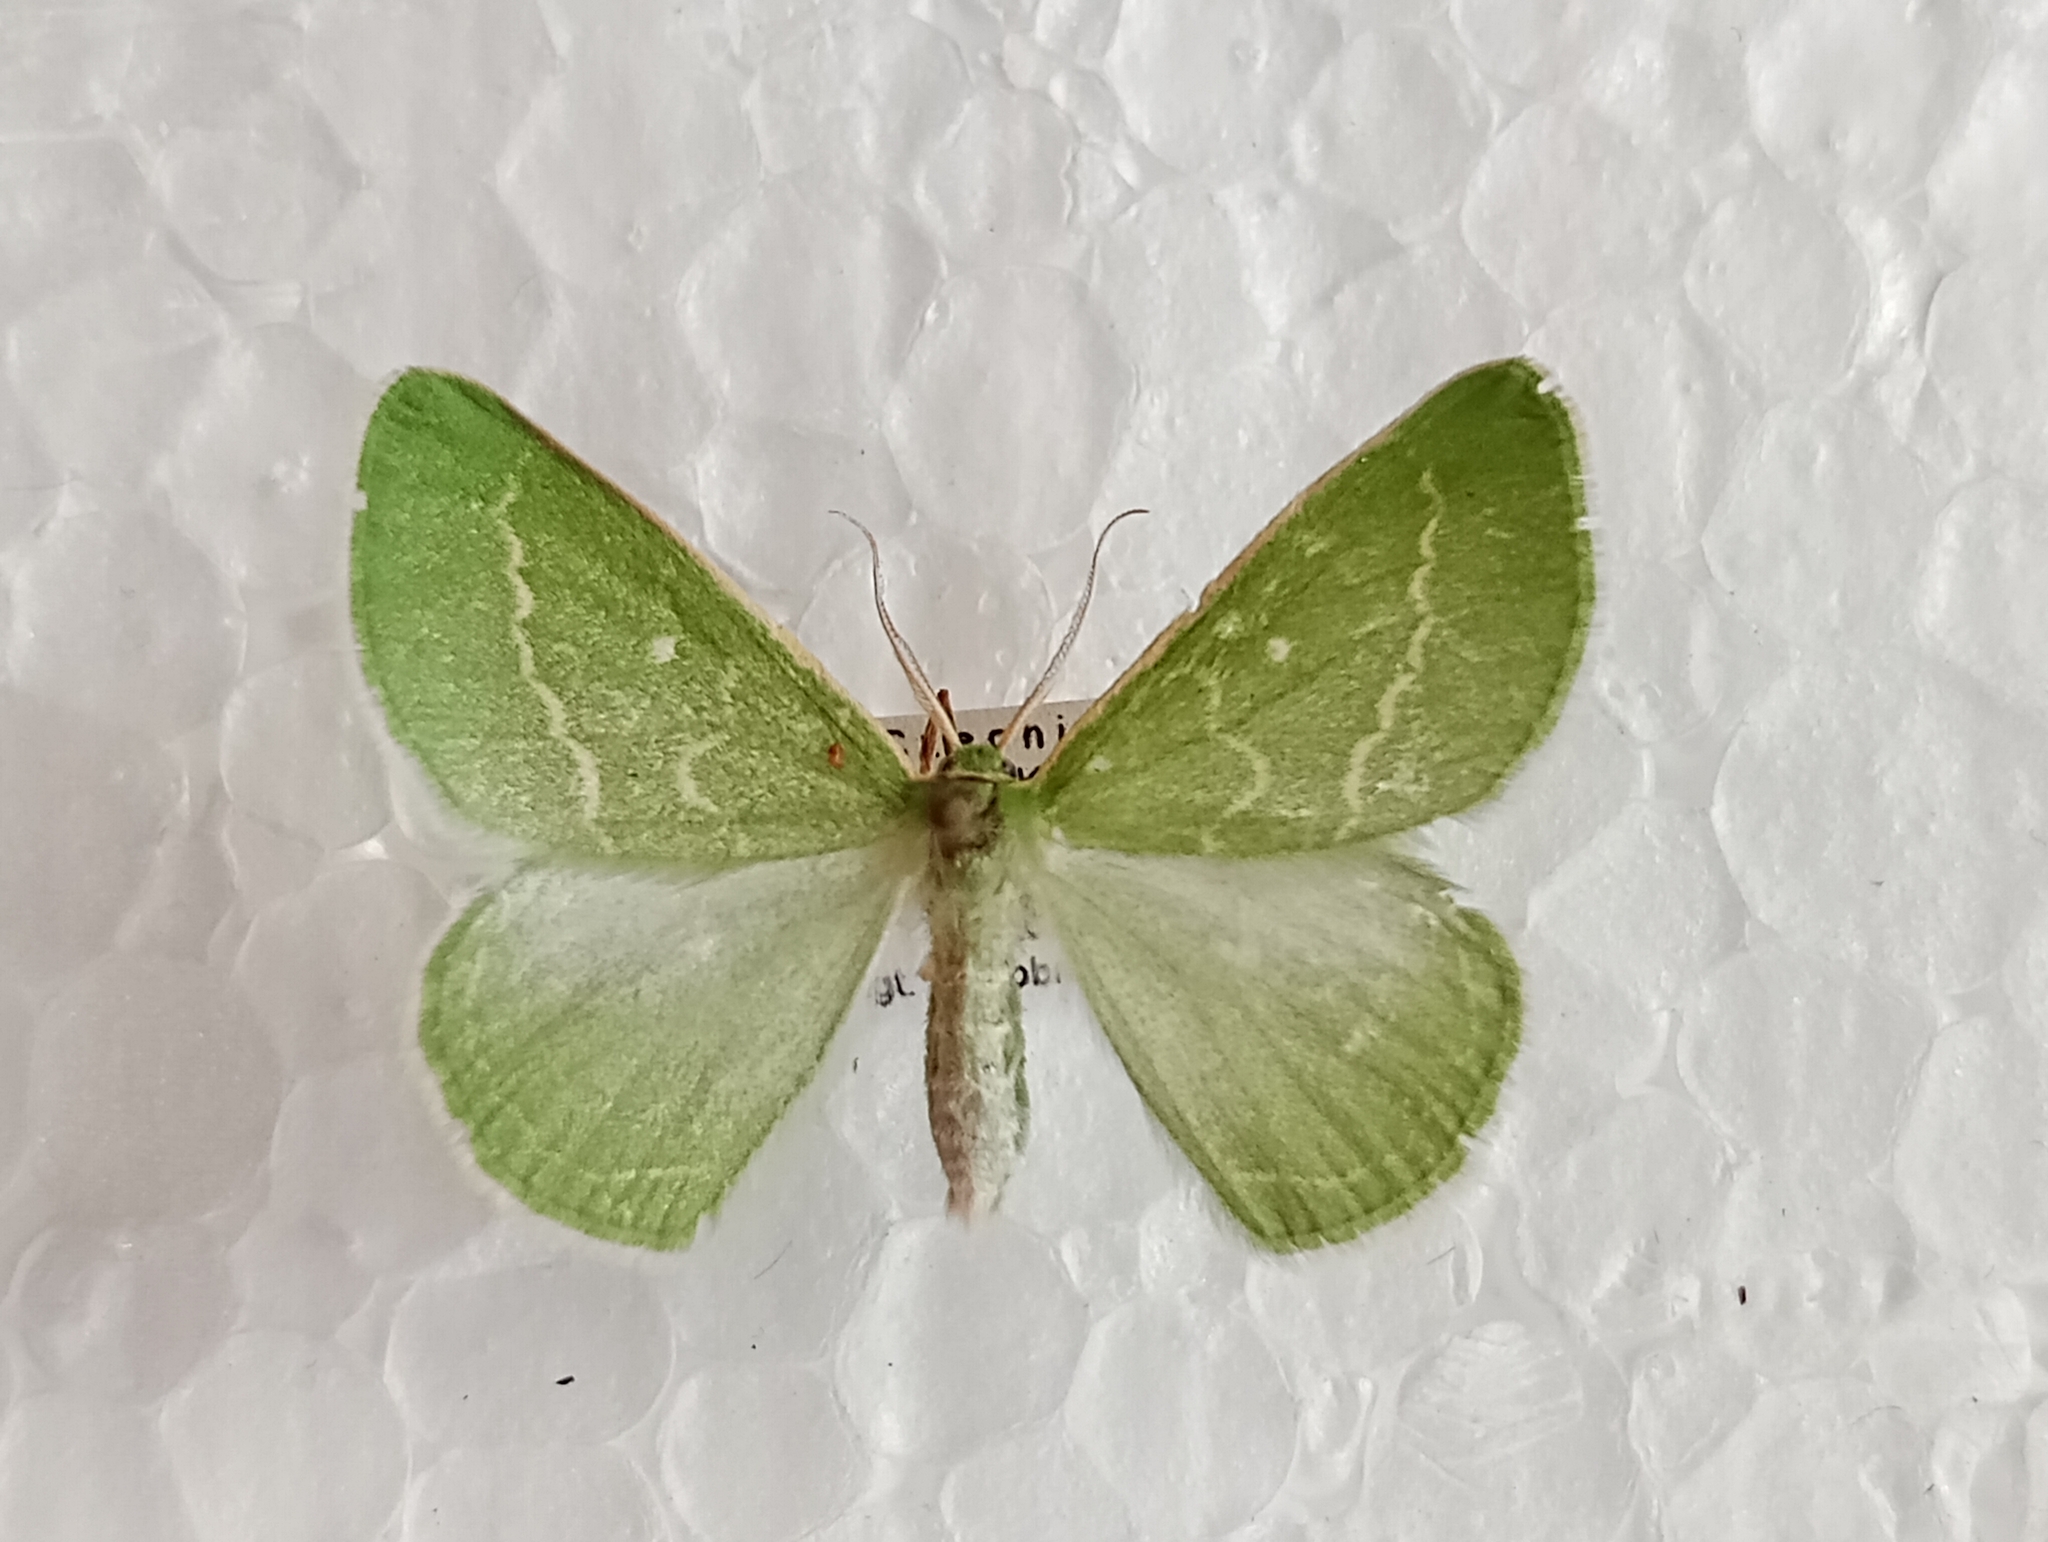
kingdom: Animalia
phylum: Arthropoda
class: Insecta
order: Lepidoptera
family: Geometridae
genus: Thetidia
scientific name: Thetidia smaragdaria
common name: Essex emerald
